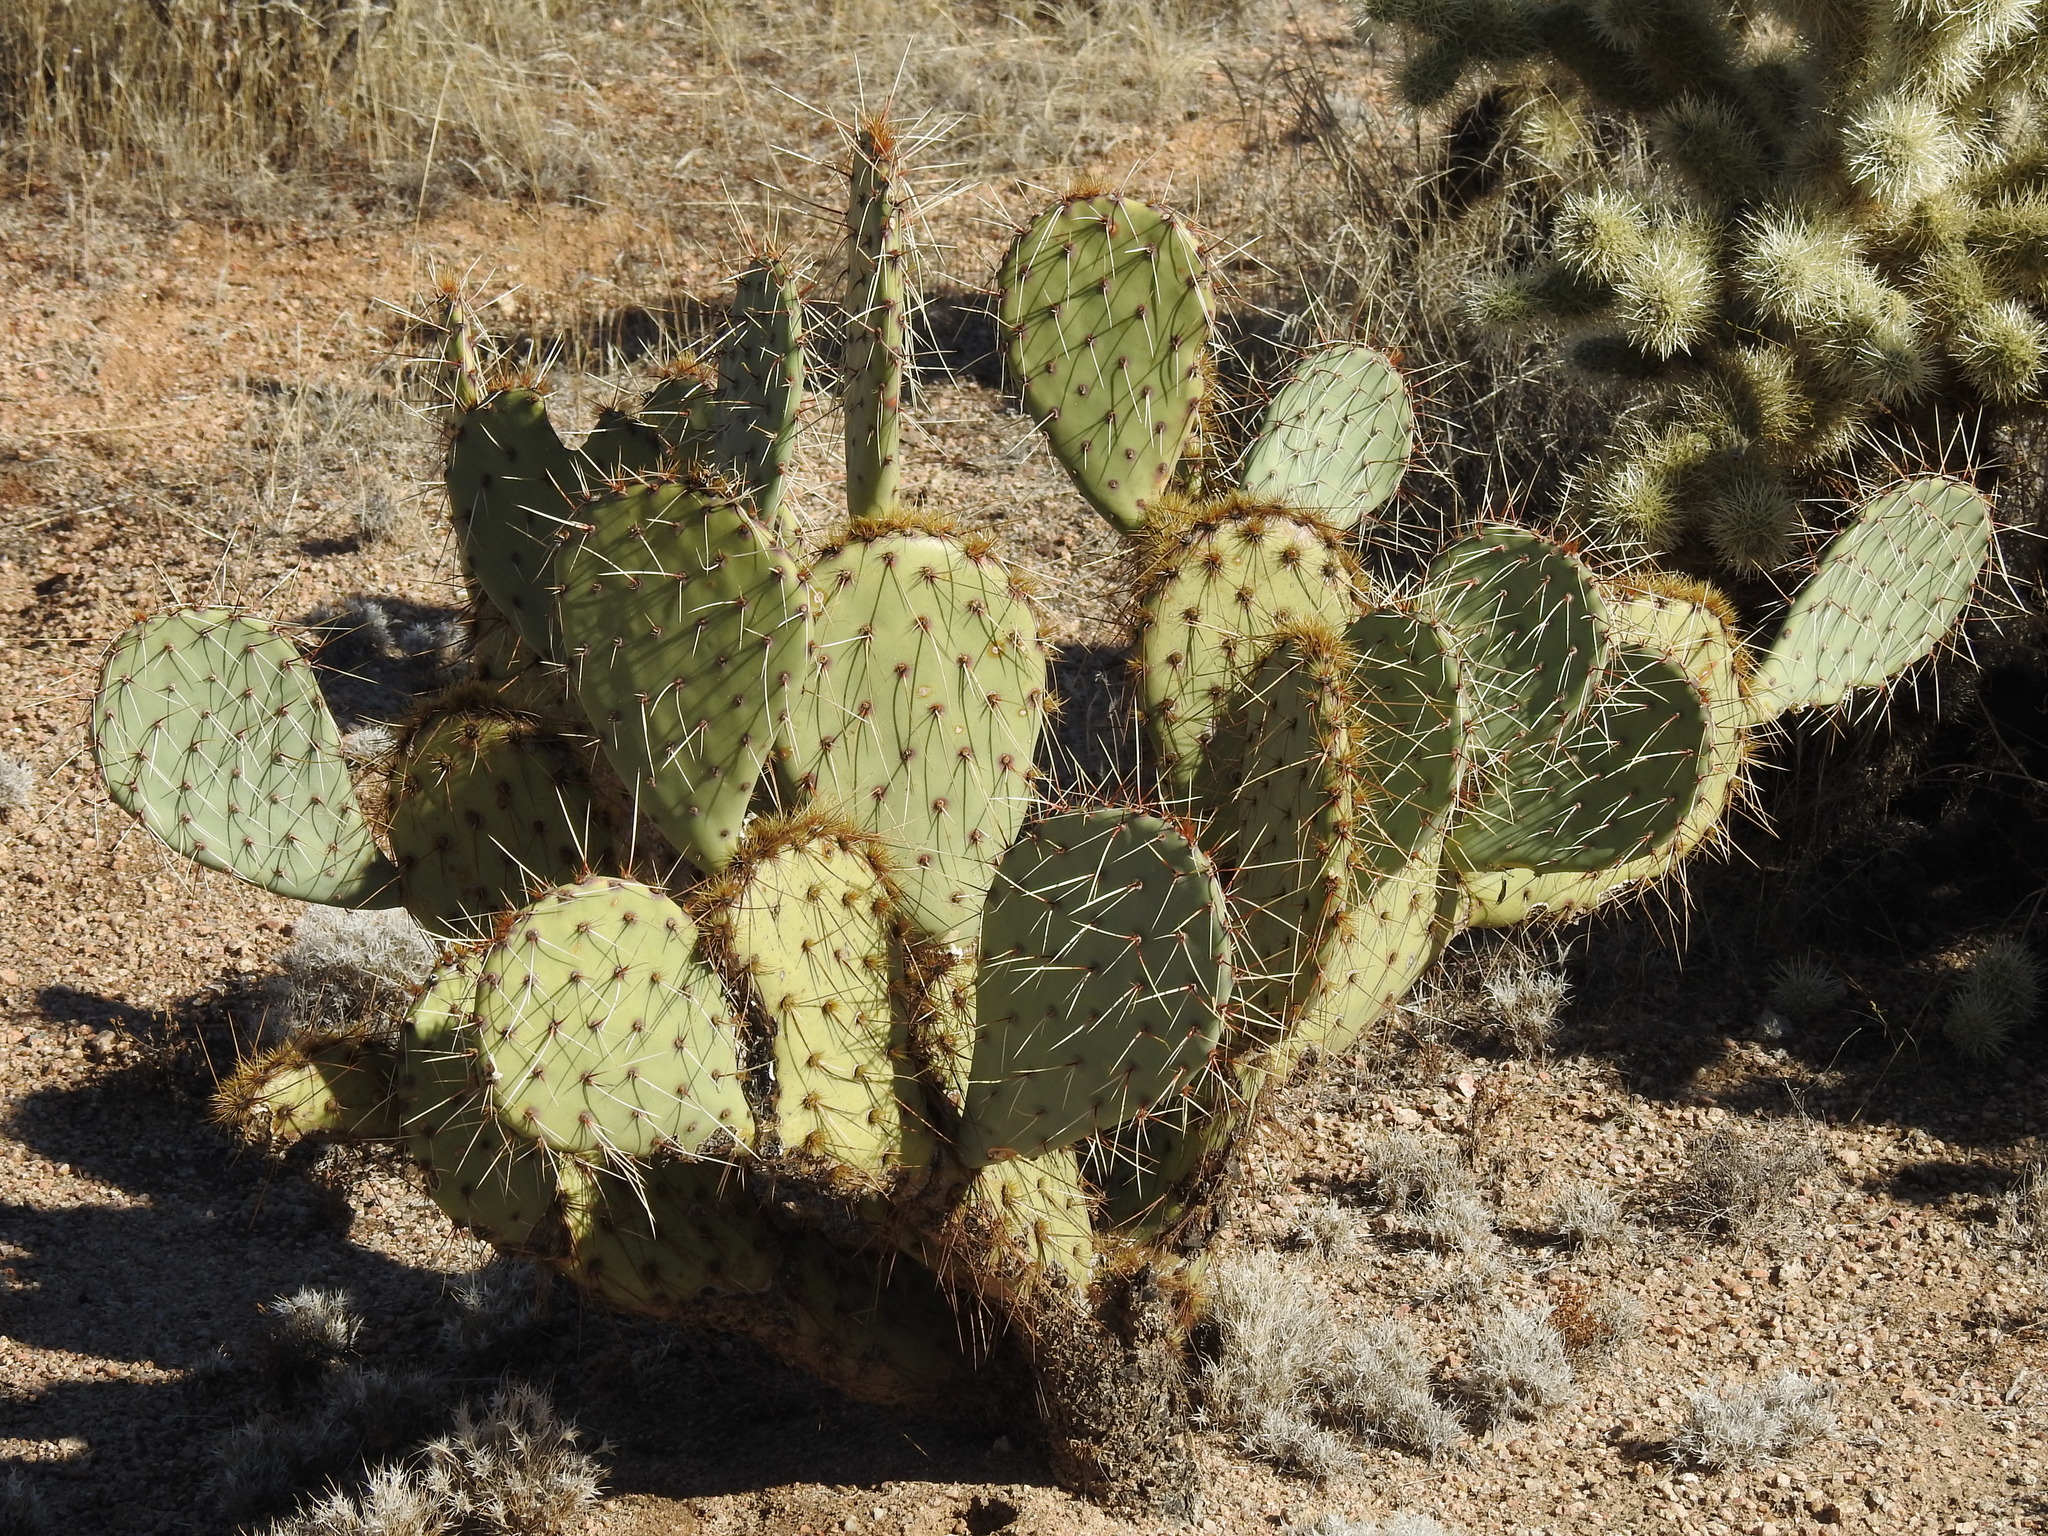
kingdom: Plantae
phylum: Tracheophyta
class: Magnoliopsida
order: Caryophyllales
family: Cactaceae
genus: Opuntia
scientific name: Opuntia engelmannii
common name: Cactus-apple
